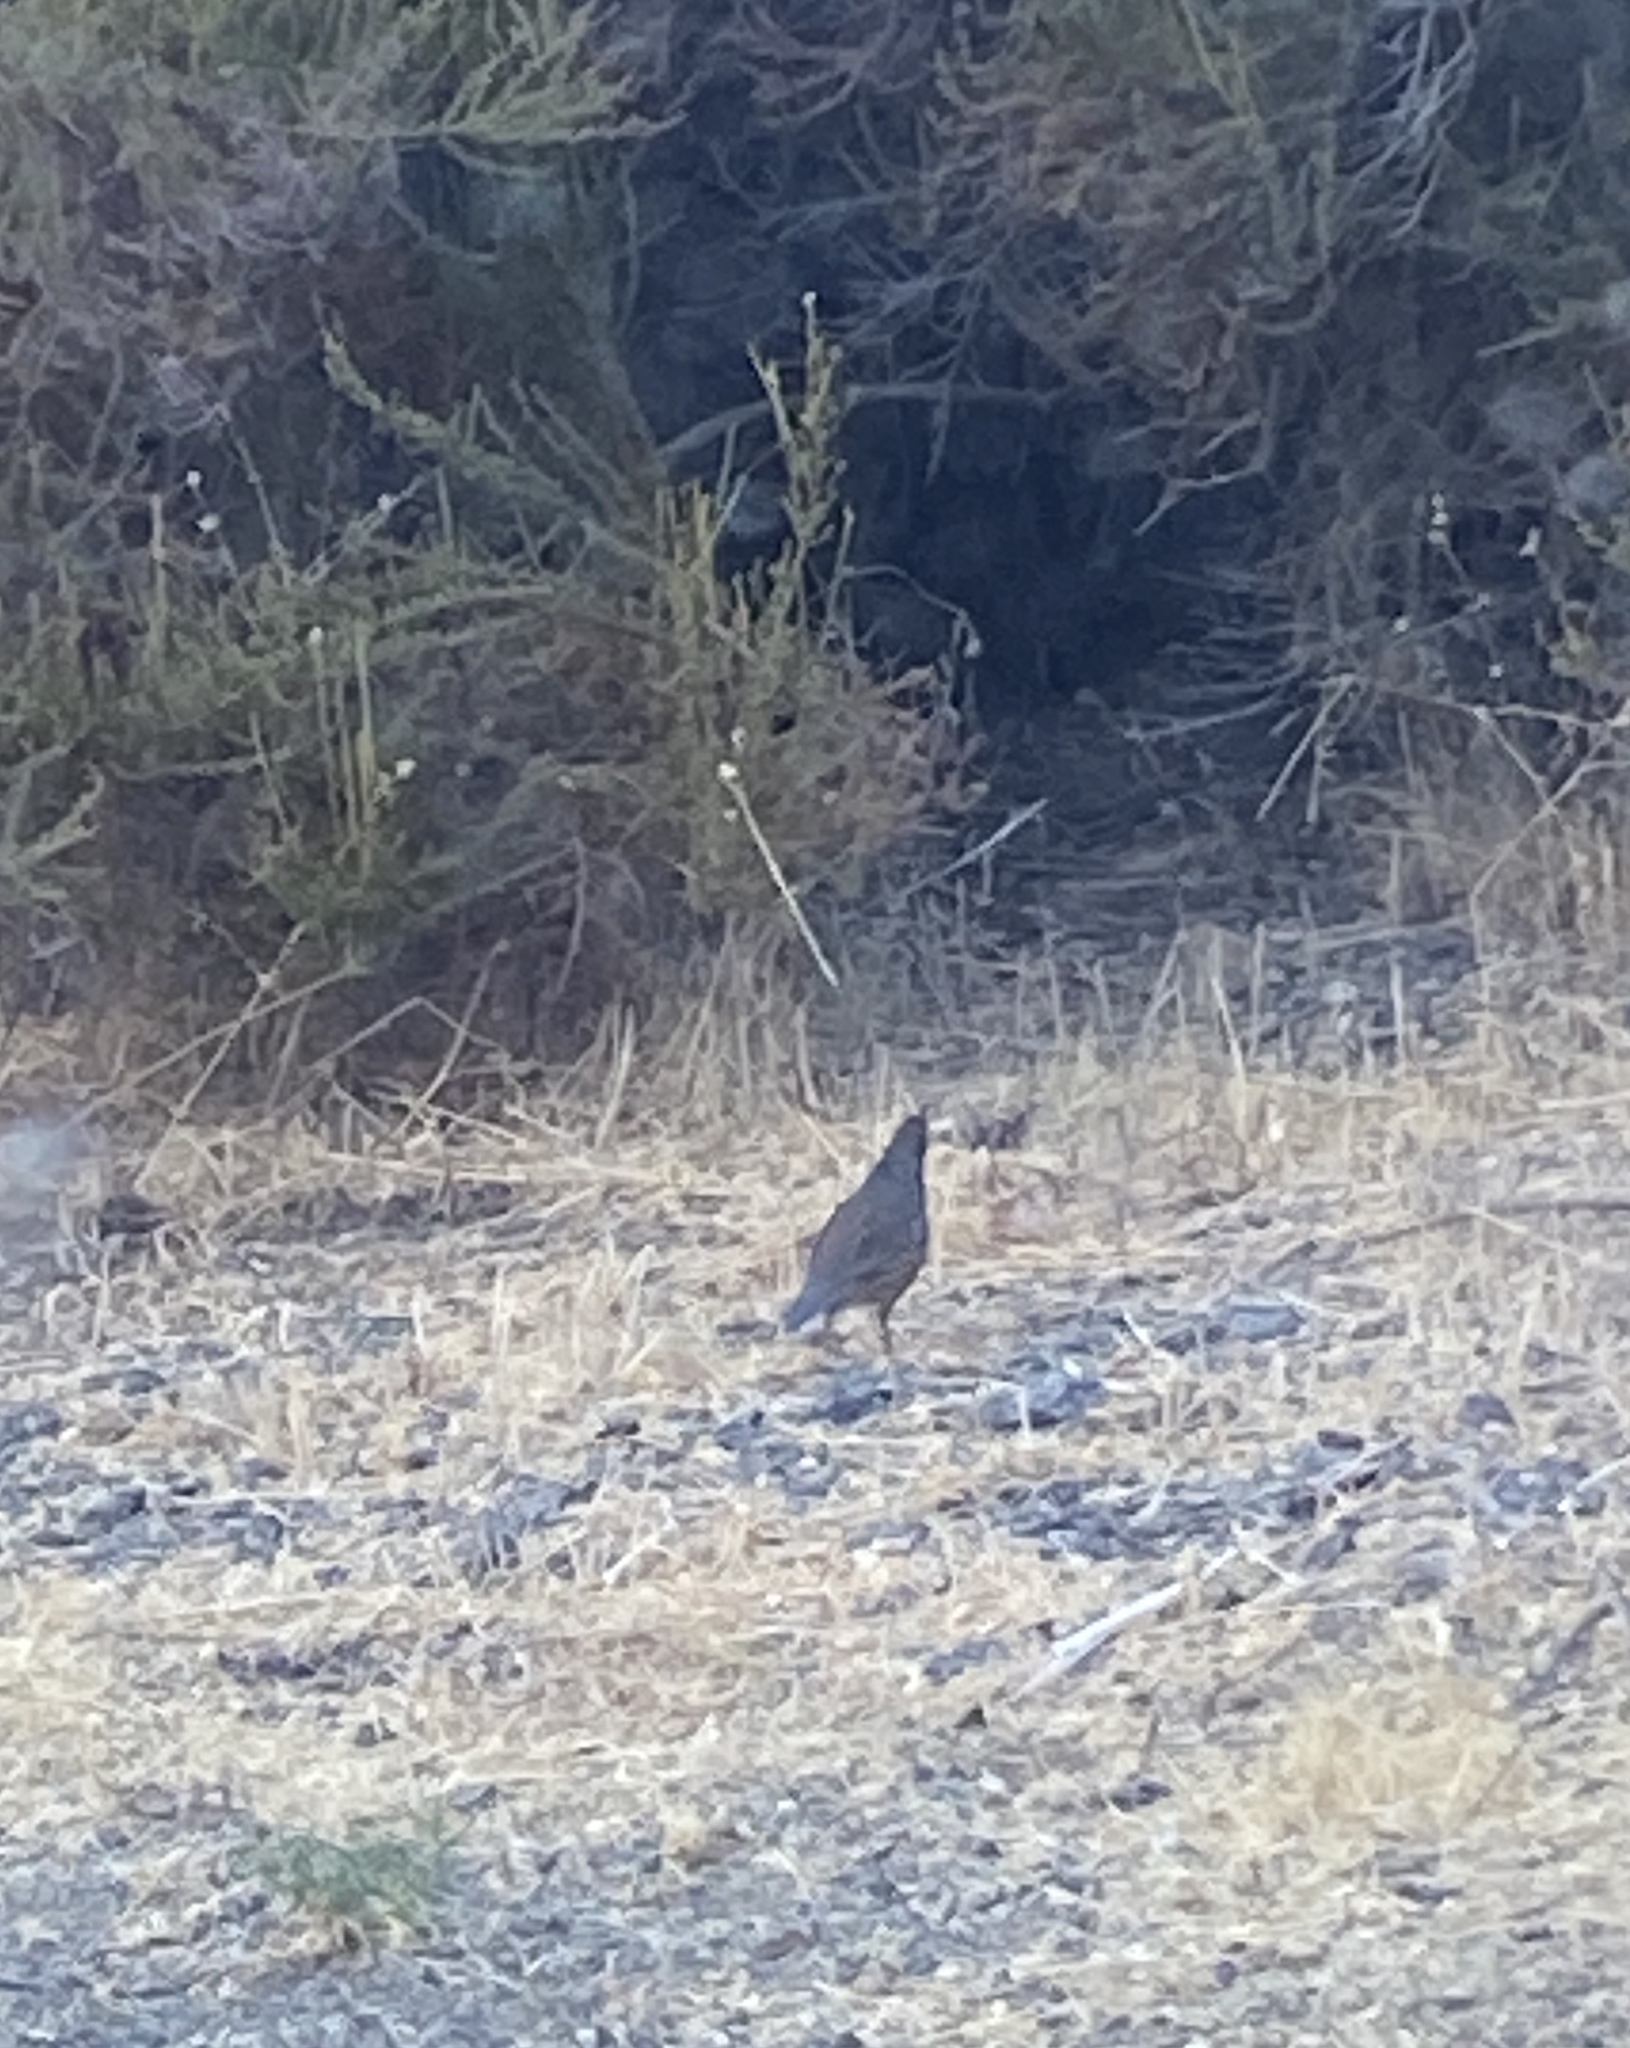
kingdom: Animalia
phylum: Chordata
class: Aves
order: Galliformes
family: Odontophoridae
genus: Callipepla
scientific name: Callipepla californica
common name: California quail
